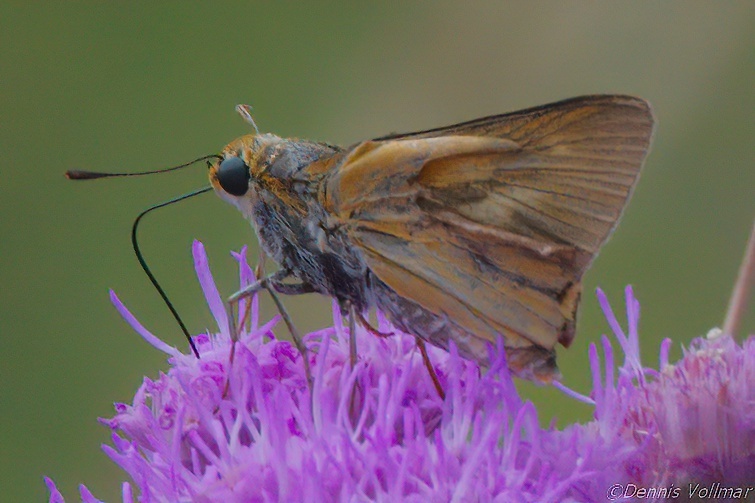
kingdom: Animalia
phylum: Arthropoda
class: Insecta
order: Lepidoptera
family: Hesperiidae
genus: Euphyes
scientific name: Euphyes arpa
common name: Palmetto skipper
